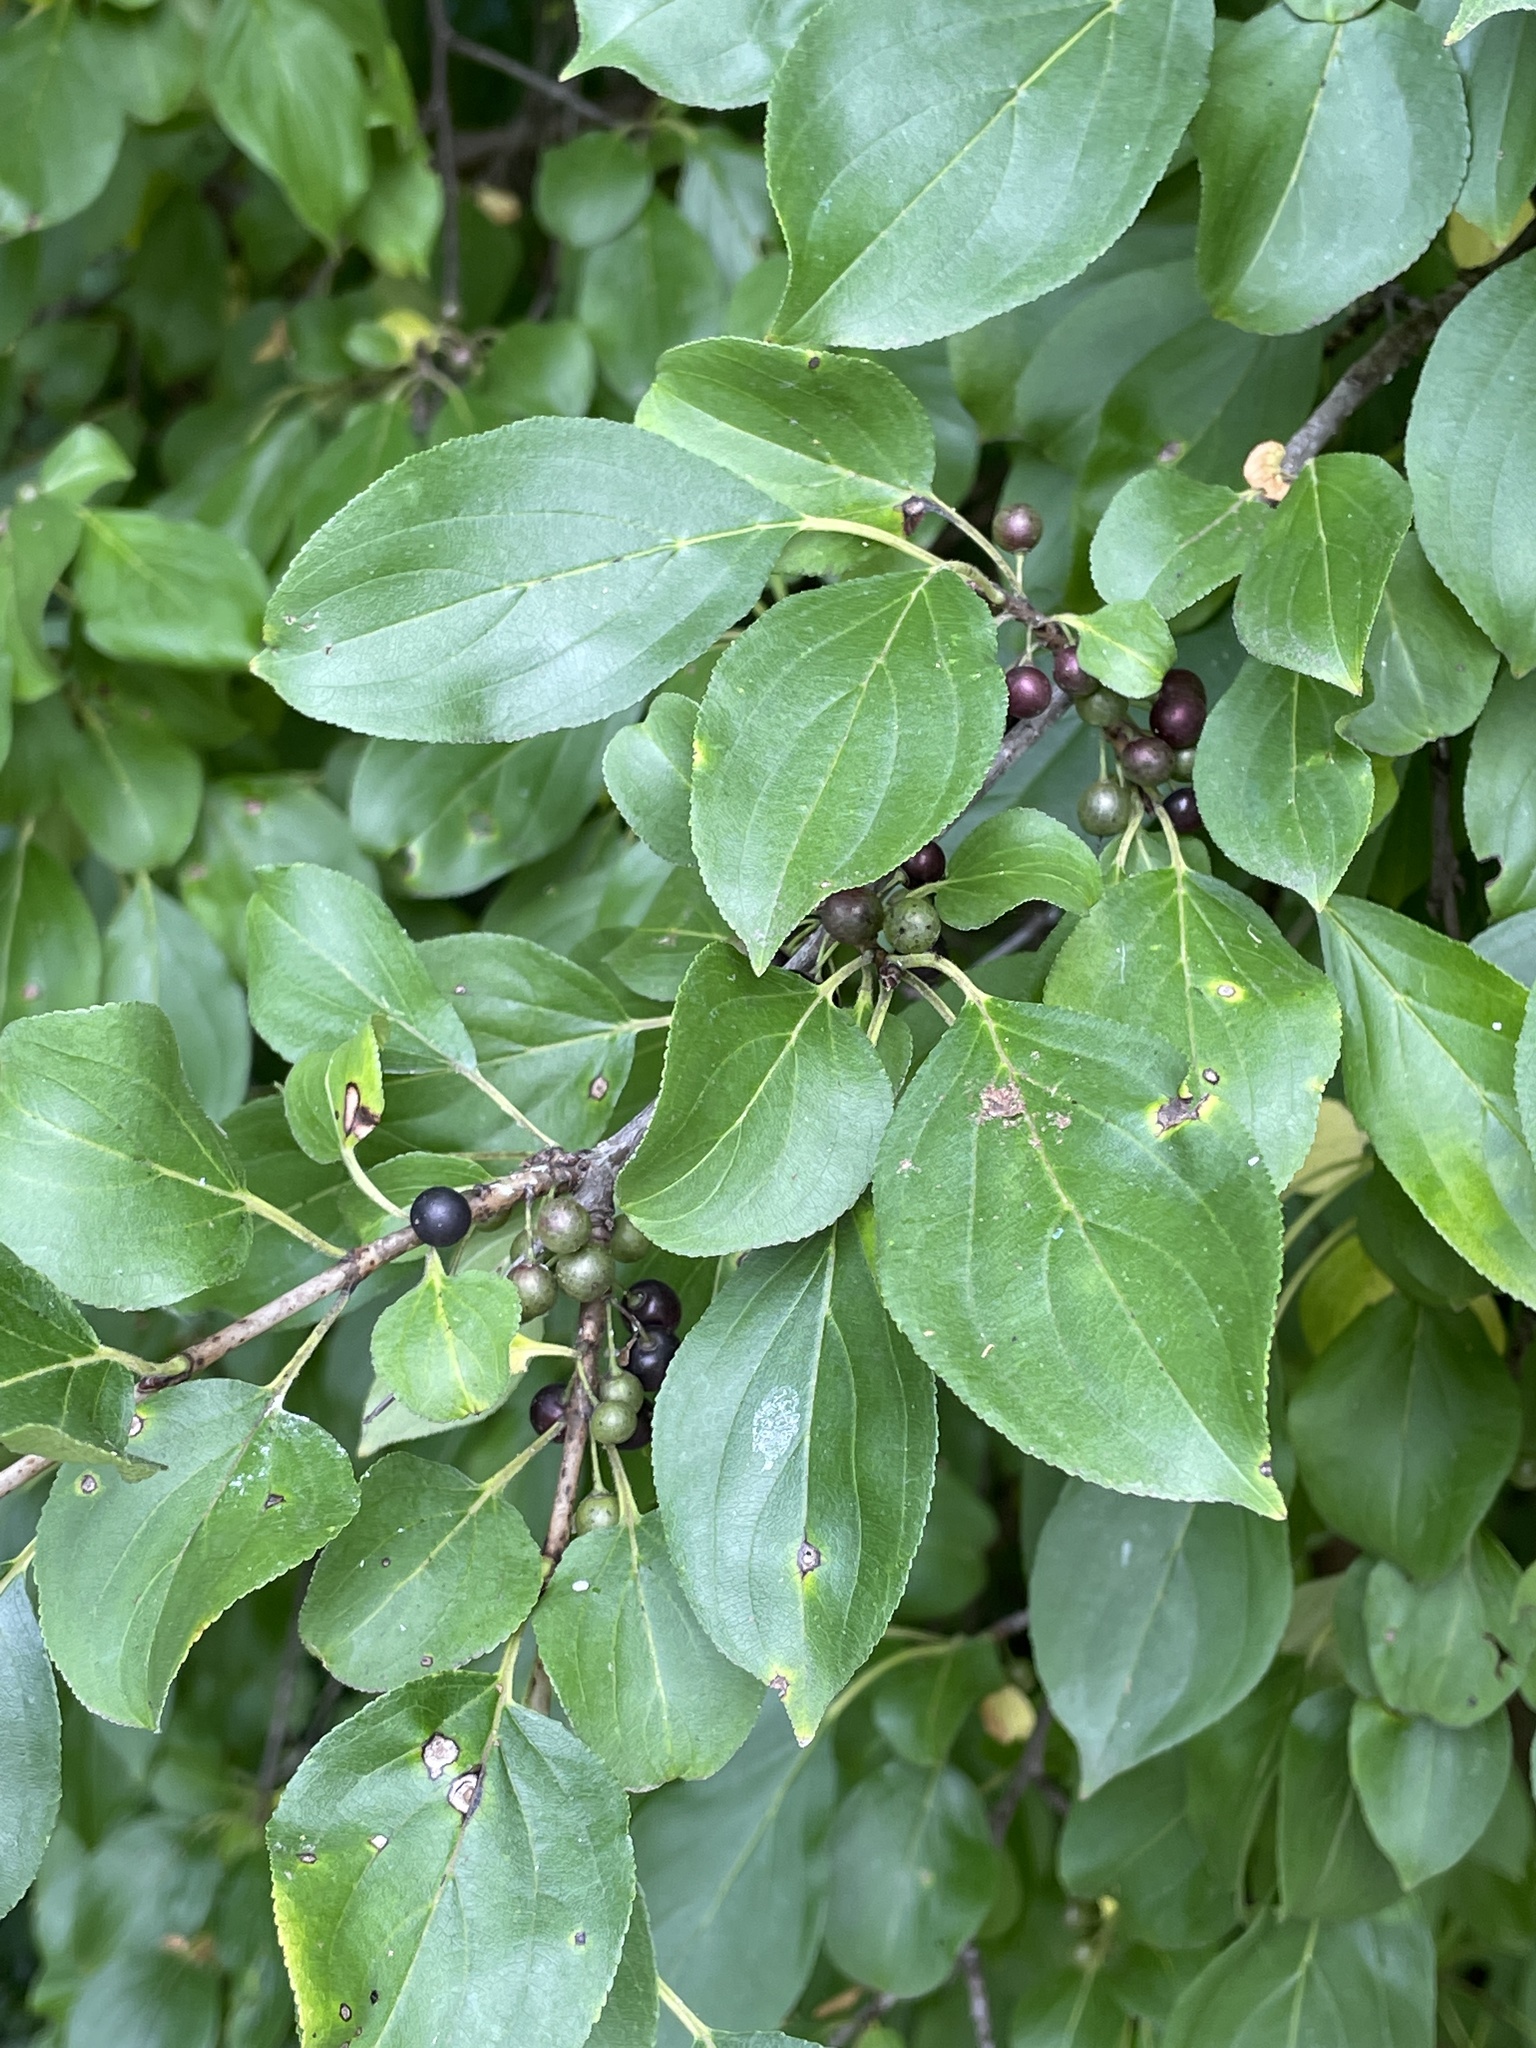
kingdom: Plantae
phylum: Tracheophyta
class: Magnoliopsida
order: Rosales
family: Rhamnaceae
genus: Rhamnus
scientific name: Rhamnus cathartica
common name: Common buckthorn
